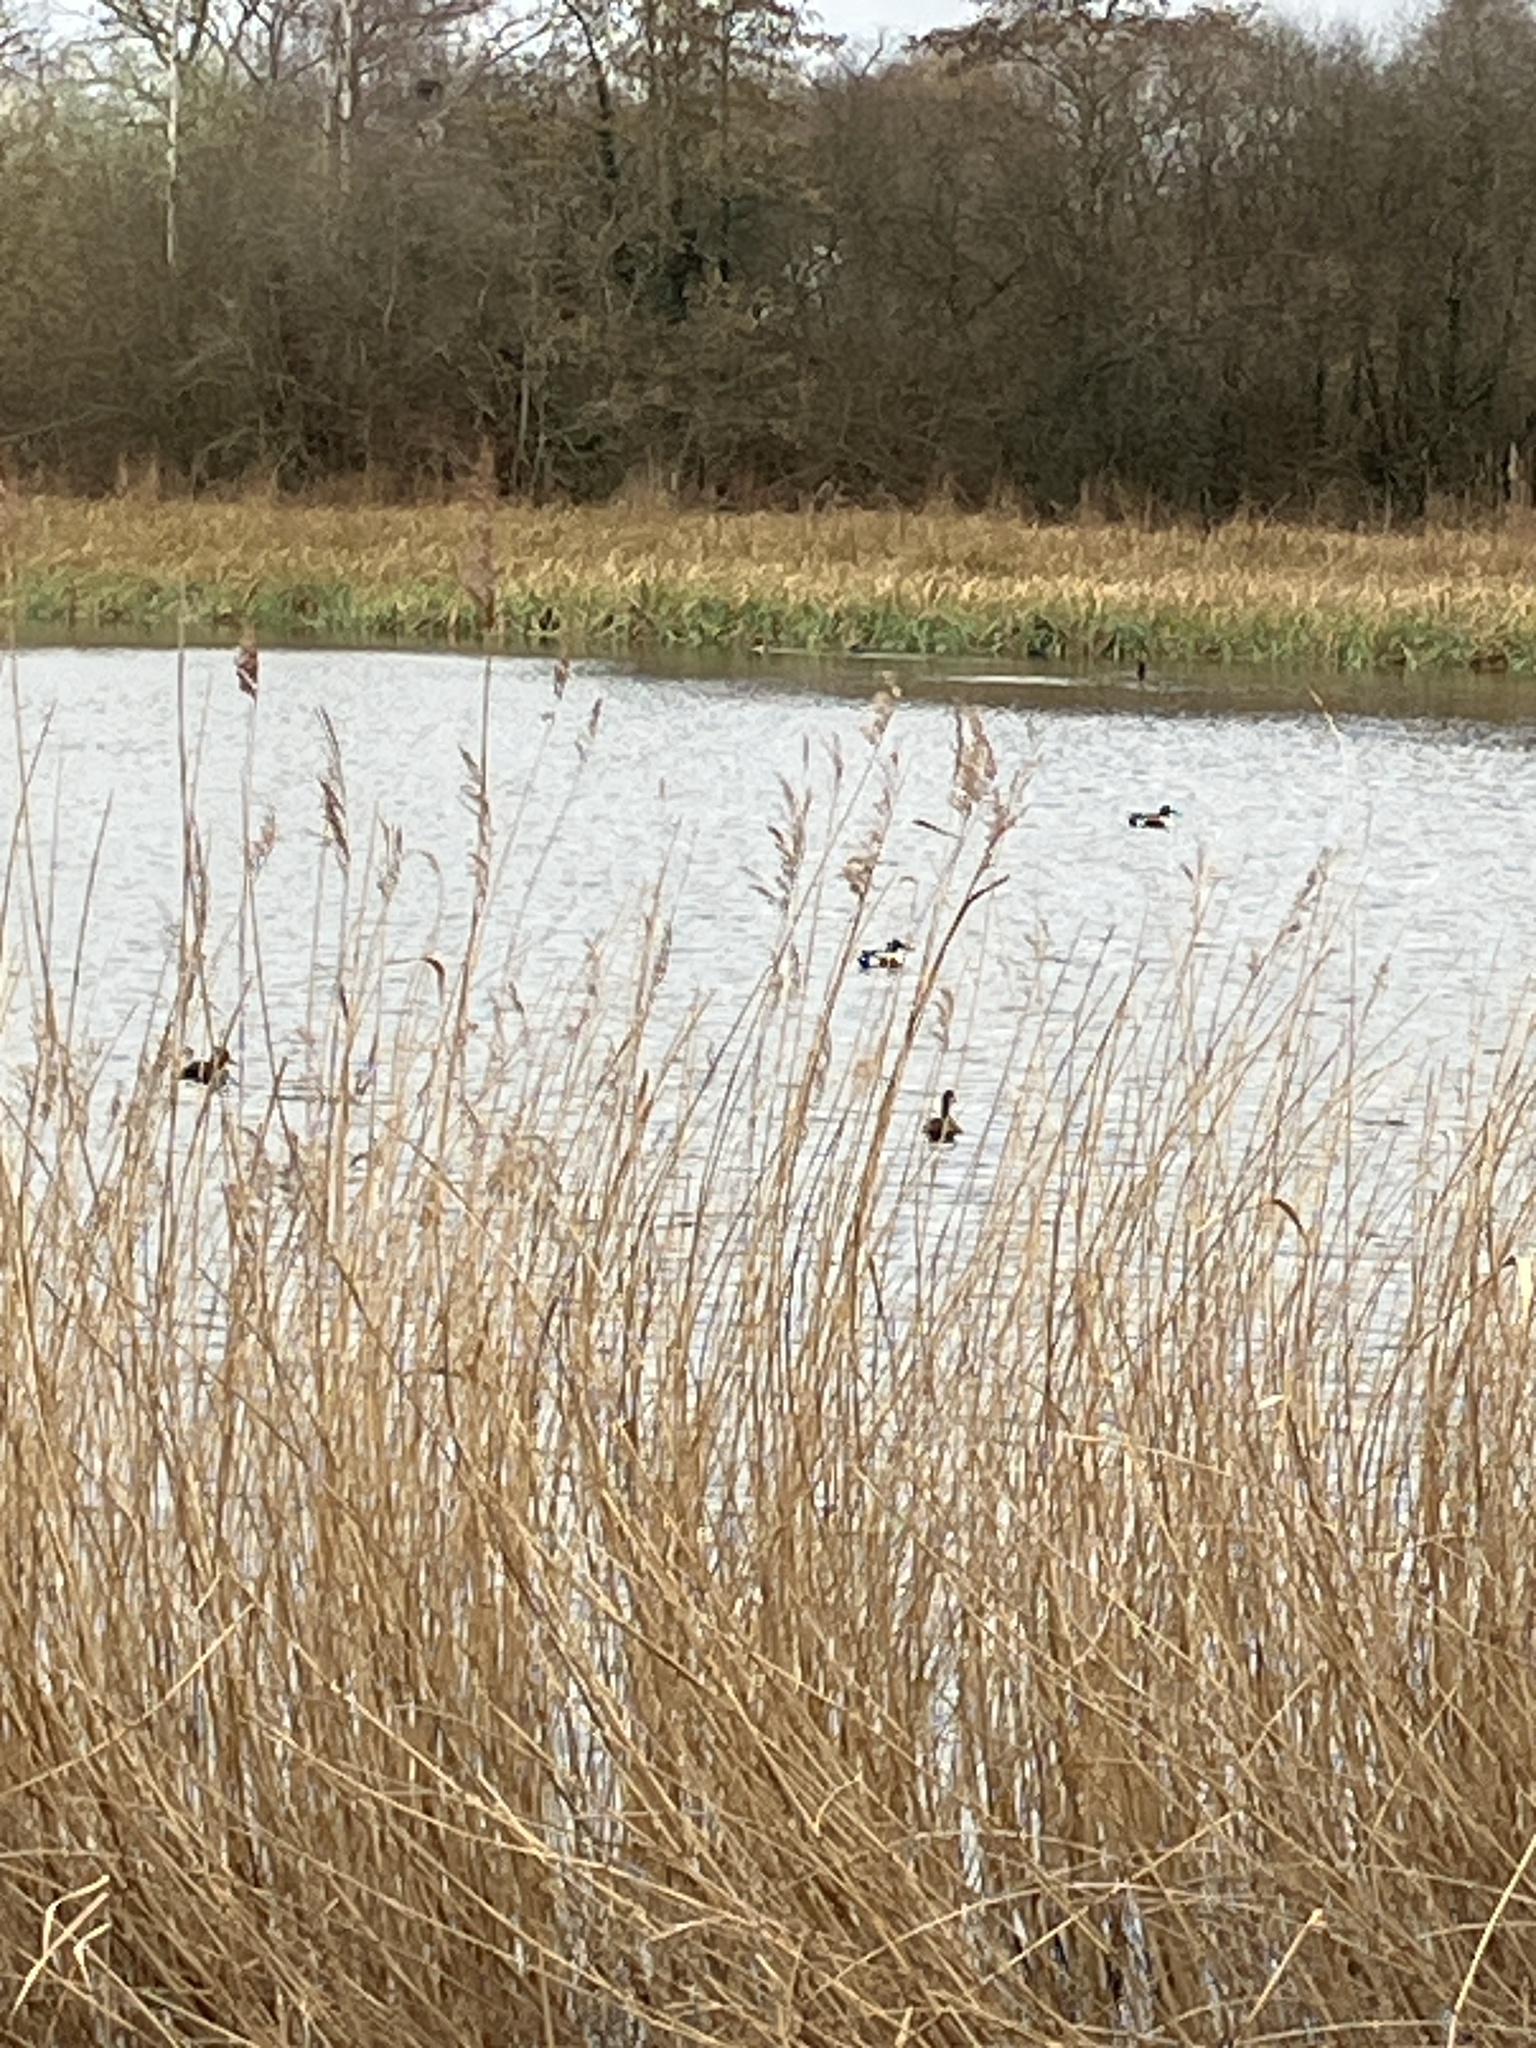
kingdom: Animalia
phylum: Chordata
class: Aves
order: Anseriformes
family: Anatidae
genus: Spatula
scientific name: Spatula clypeata
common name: Northern shoveler
